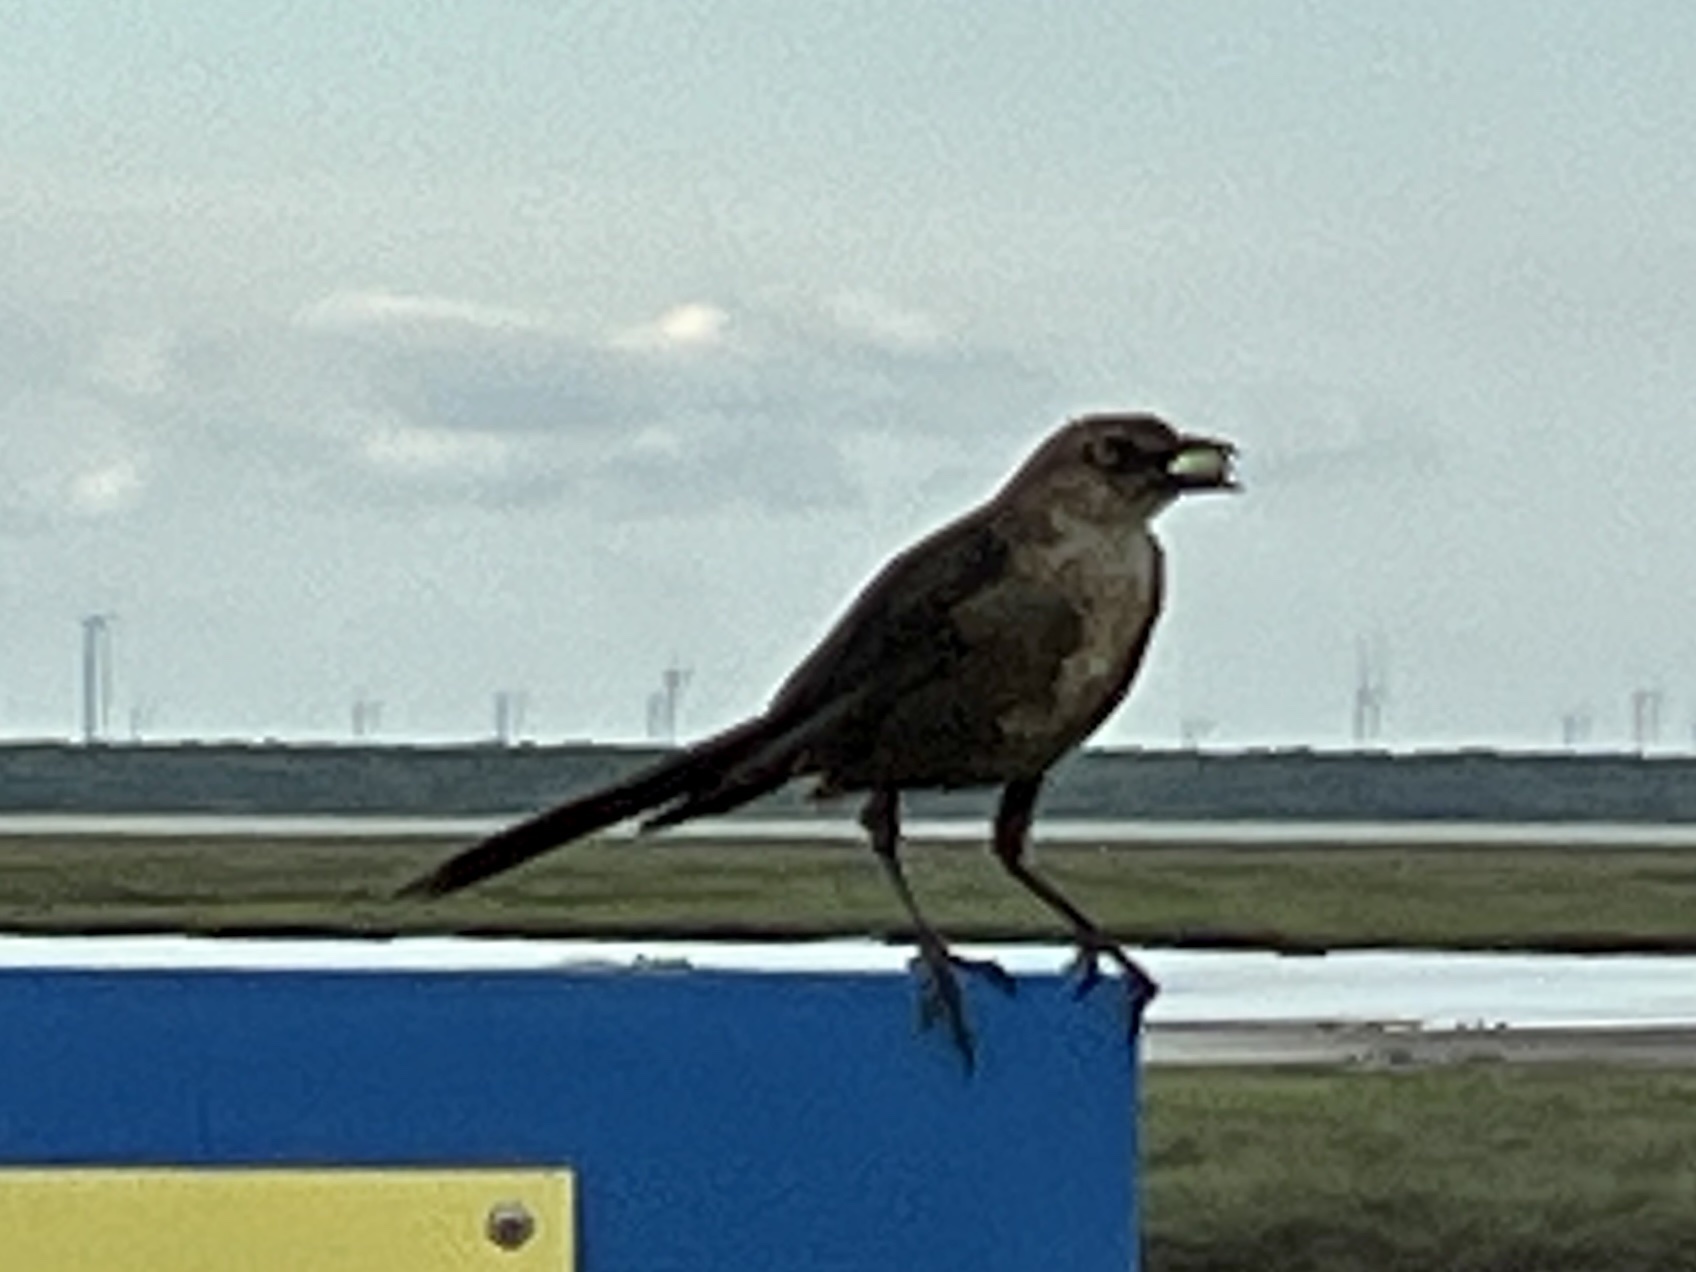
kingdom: Animalia
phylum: Chordata
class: Aves
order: Passeriformes
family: Icteridae
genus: Quiscalus
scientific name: Quiscalus mexicanus
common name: Great-tailed grackle
